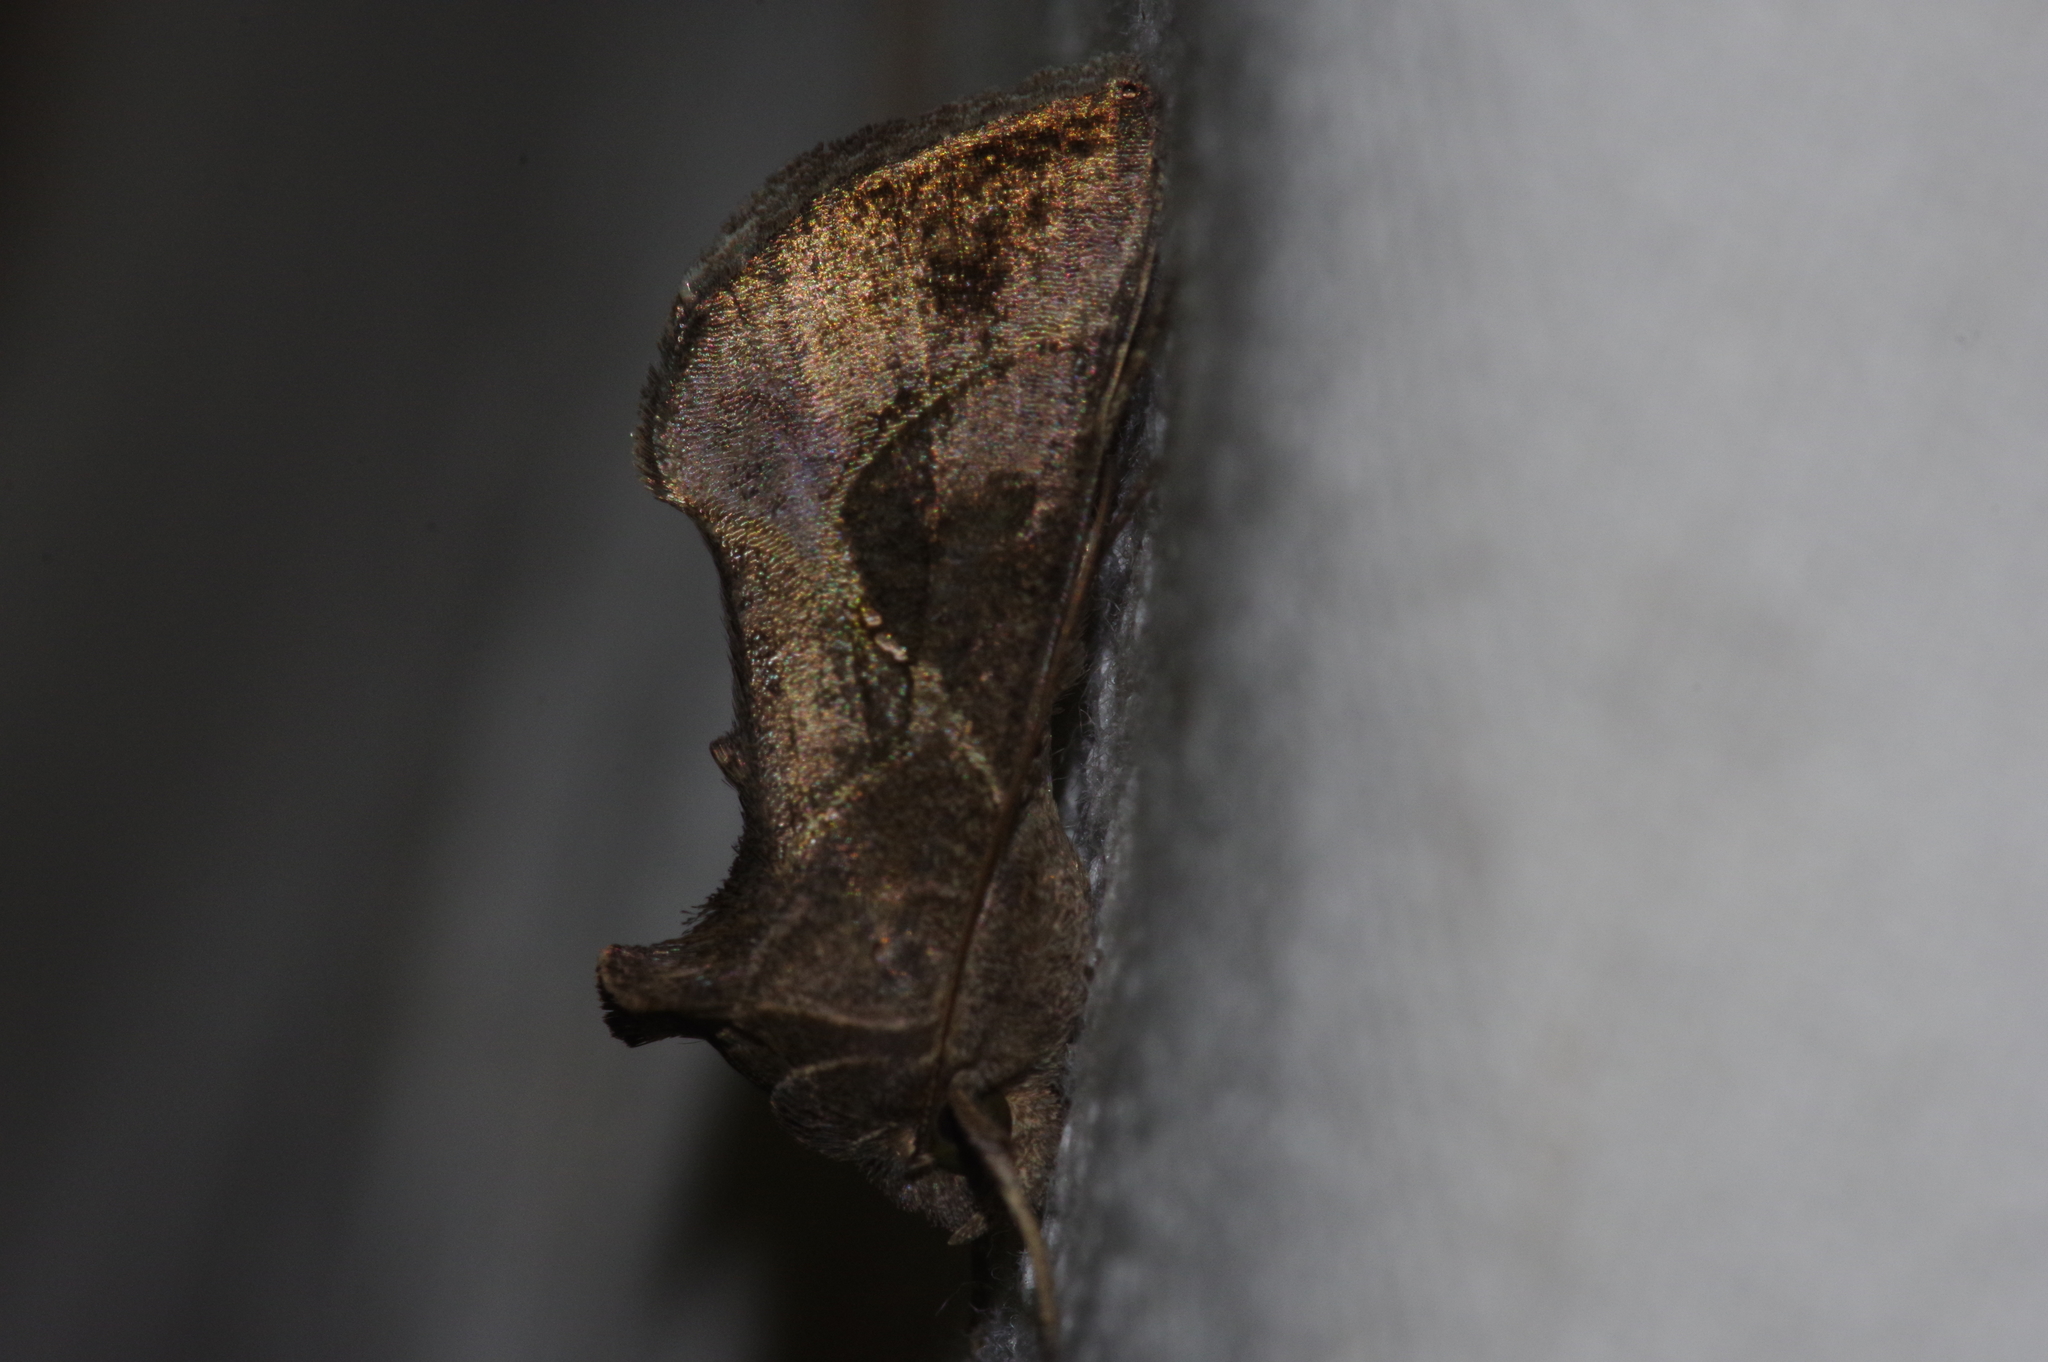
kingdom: Animalia
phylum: Arthropoda
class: Insecta
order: Lepidoptera
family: Noctuidae
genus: Chrysodeixis
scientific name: Chrysodeixis heberachis
